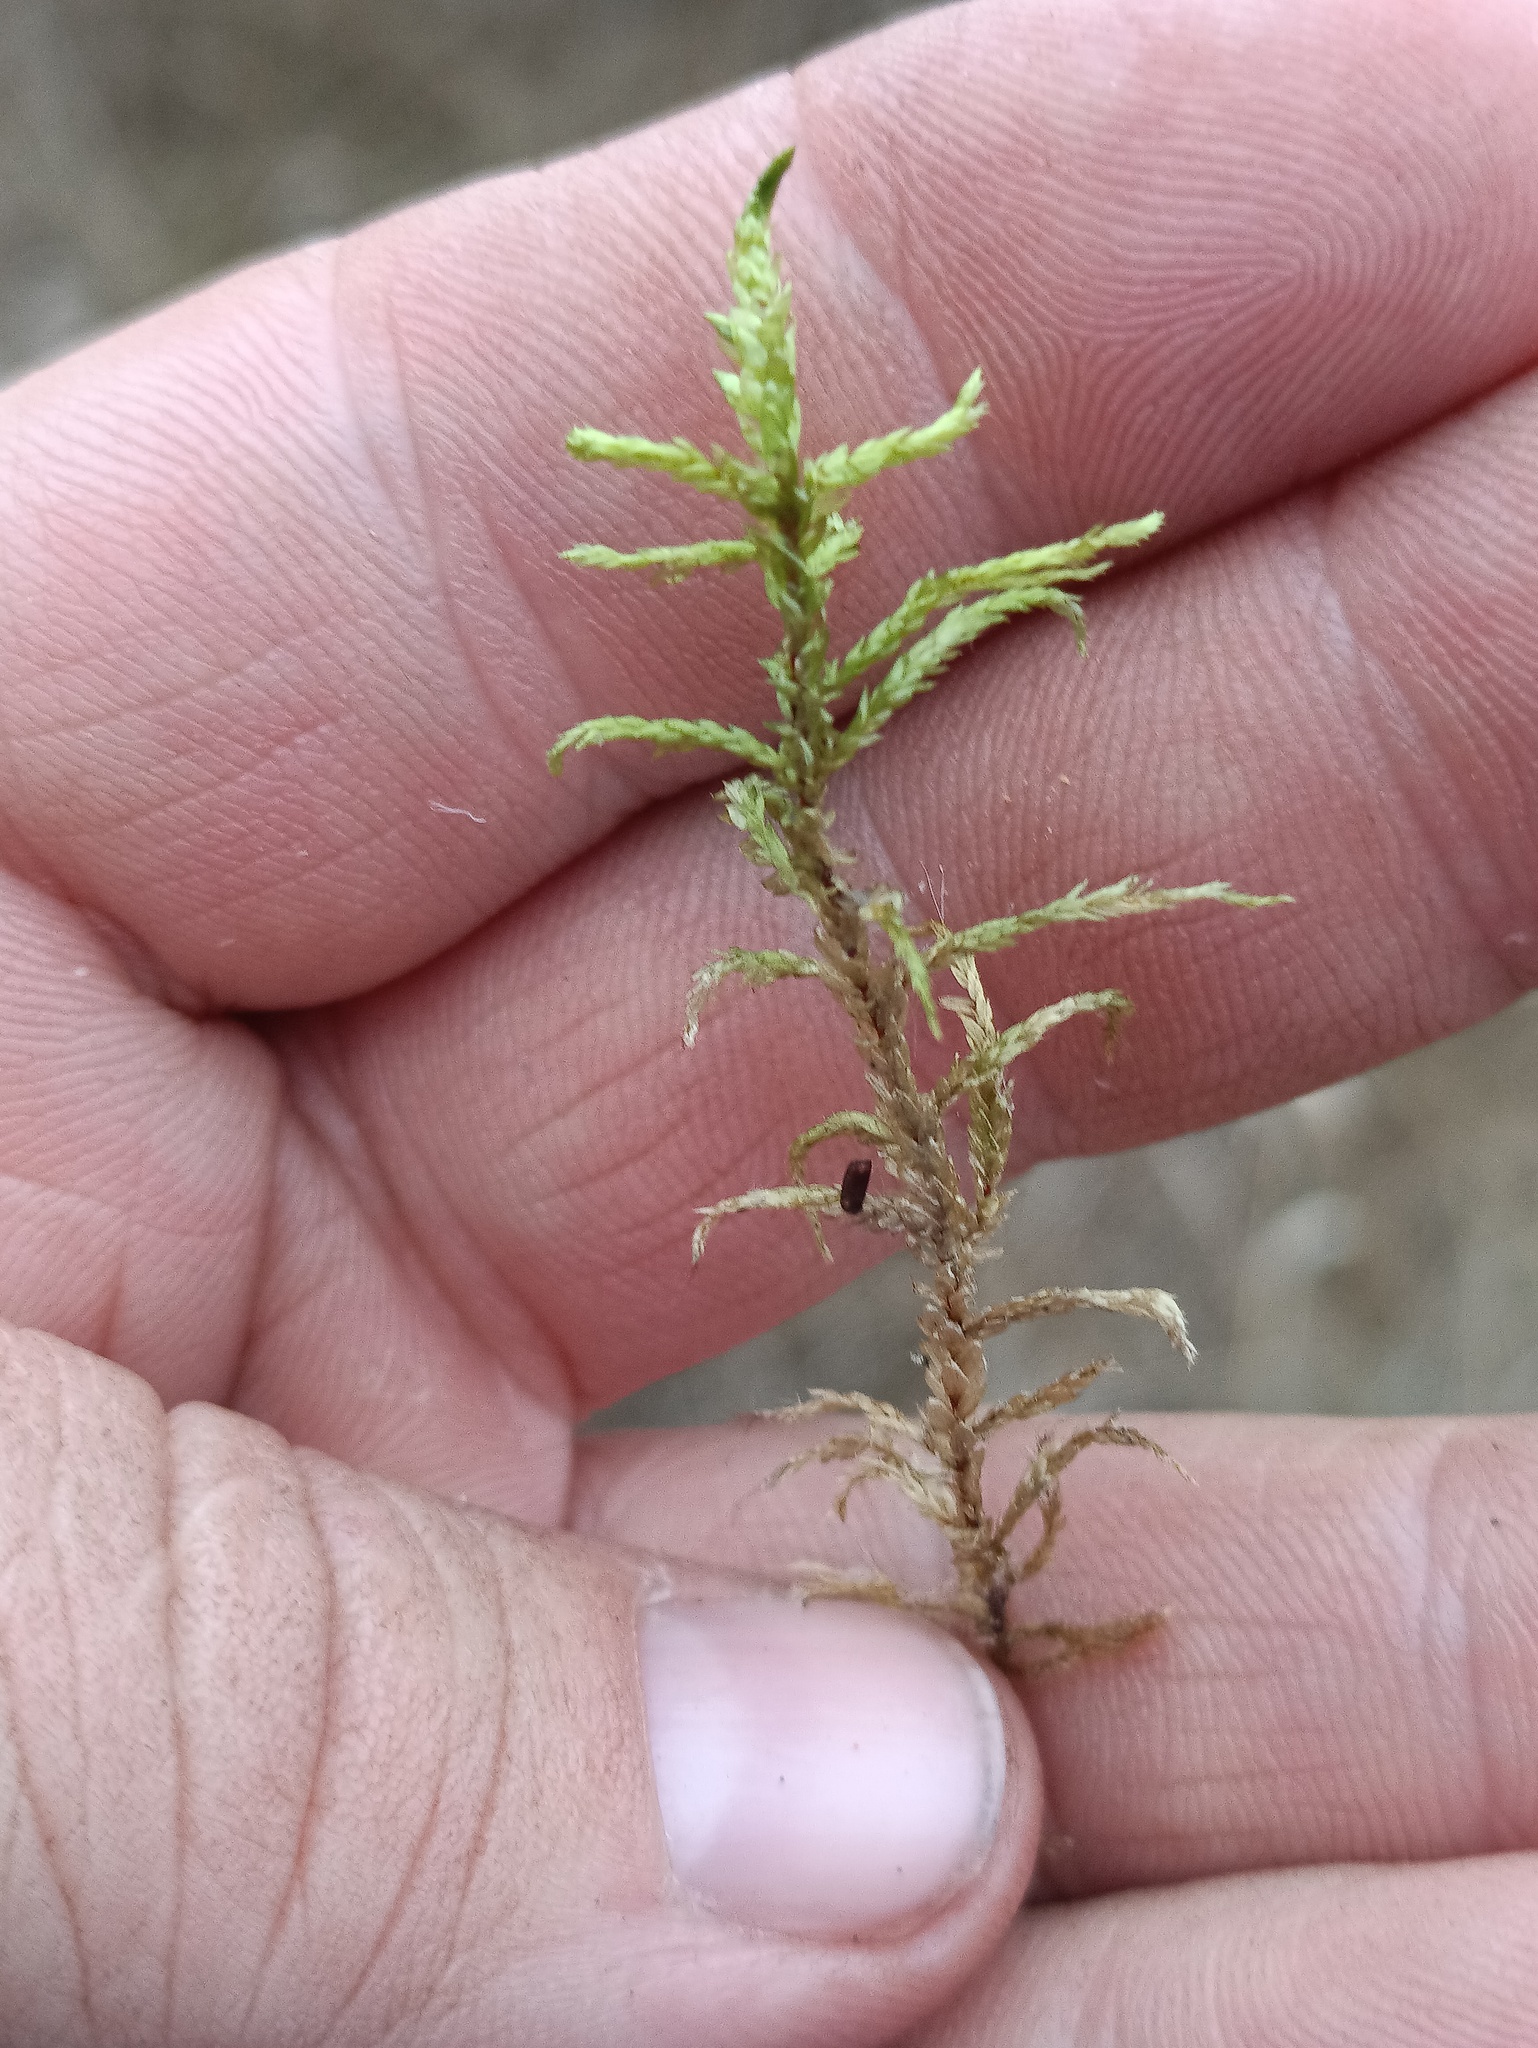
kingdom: Plantae
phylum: Bryophyta
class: Bryopsida
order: Hypnales
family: Hylocomiaceae
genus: Pleurozium
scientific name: Pleurozium schreberi
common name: Red-stemmed feather moss
